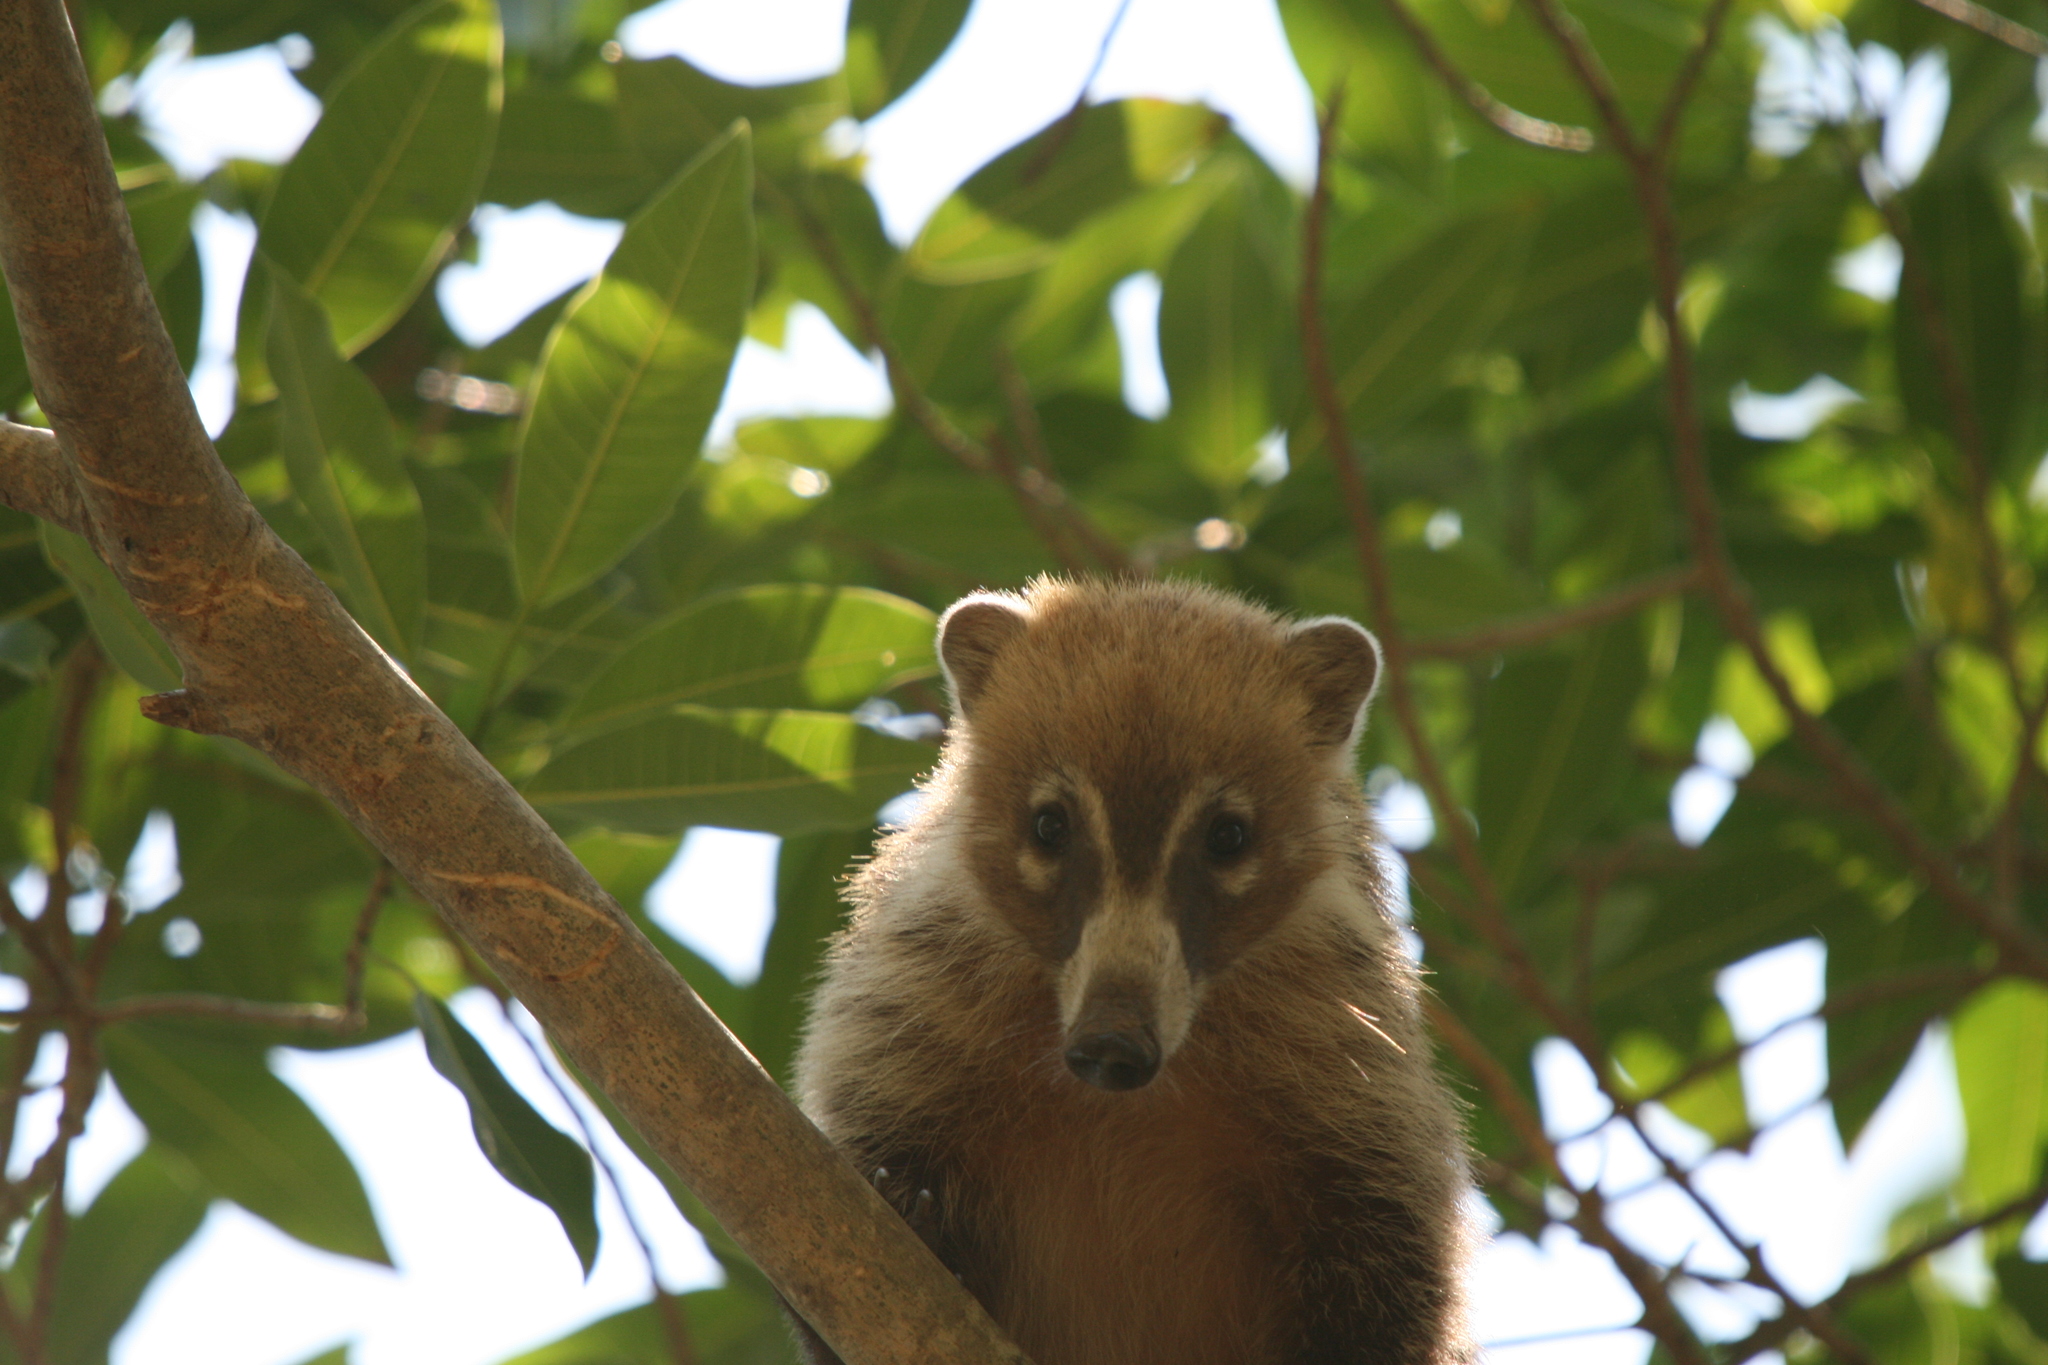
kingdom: Animalia
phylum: Chordata
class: Mammalia
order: Carnivora
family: Procyonidae
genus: Nasua
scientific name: Nasua narica
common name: White-nosed coati
